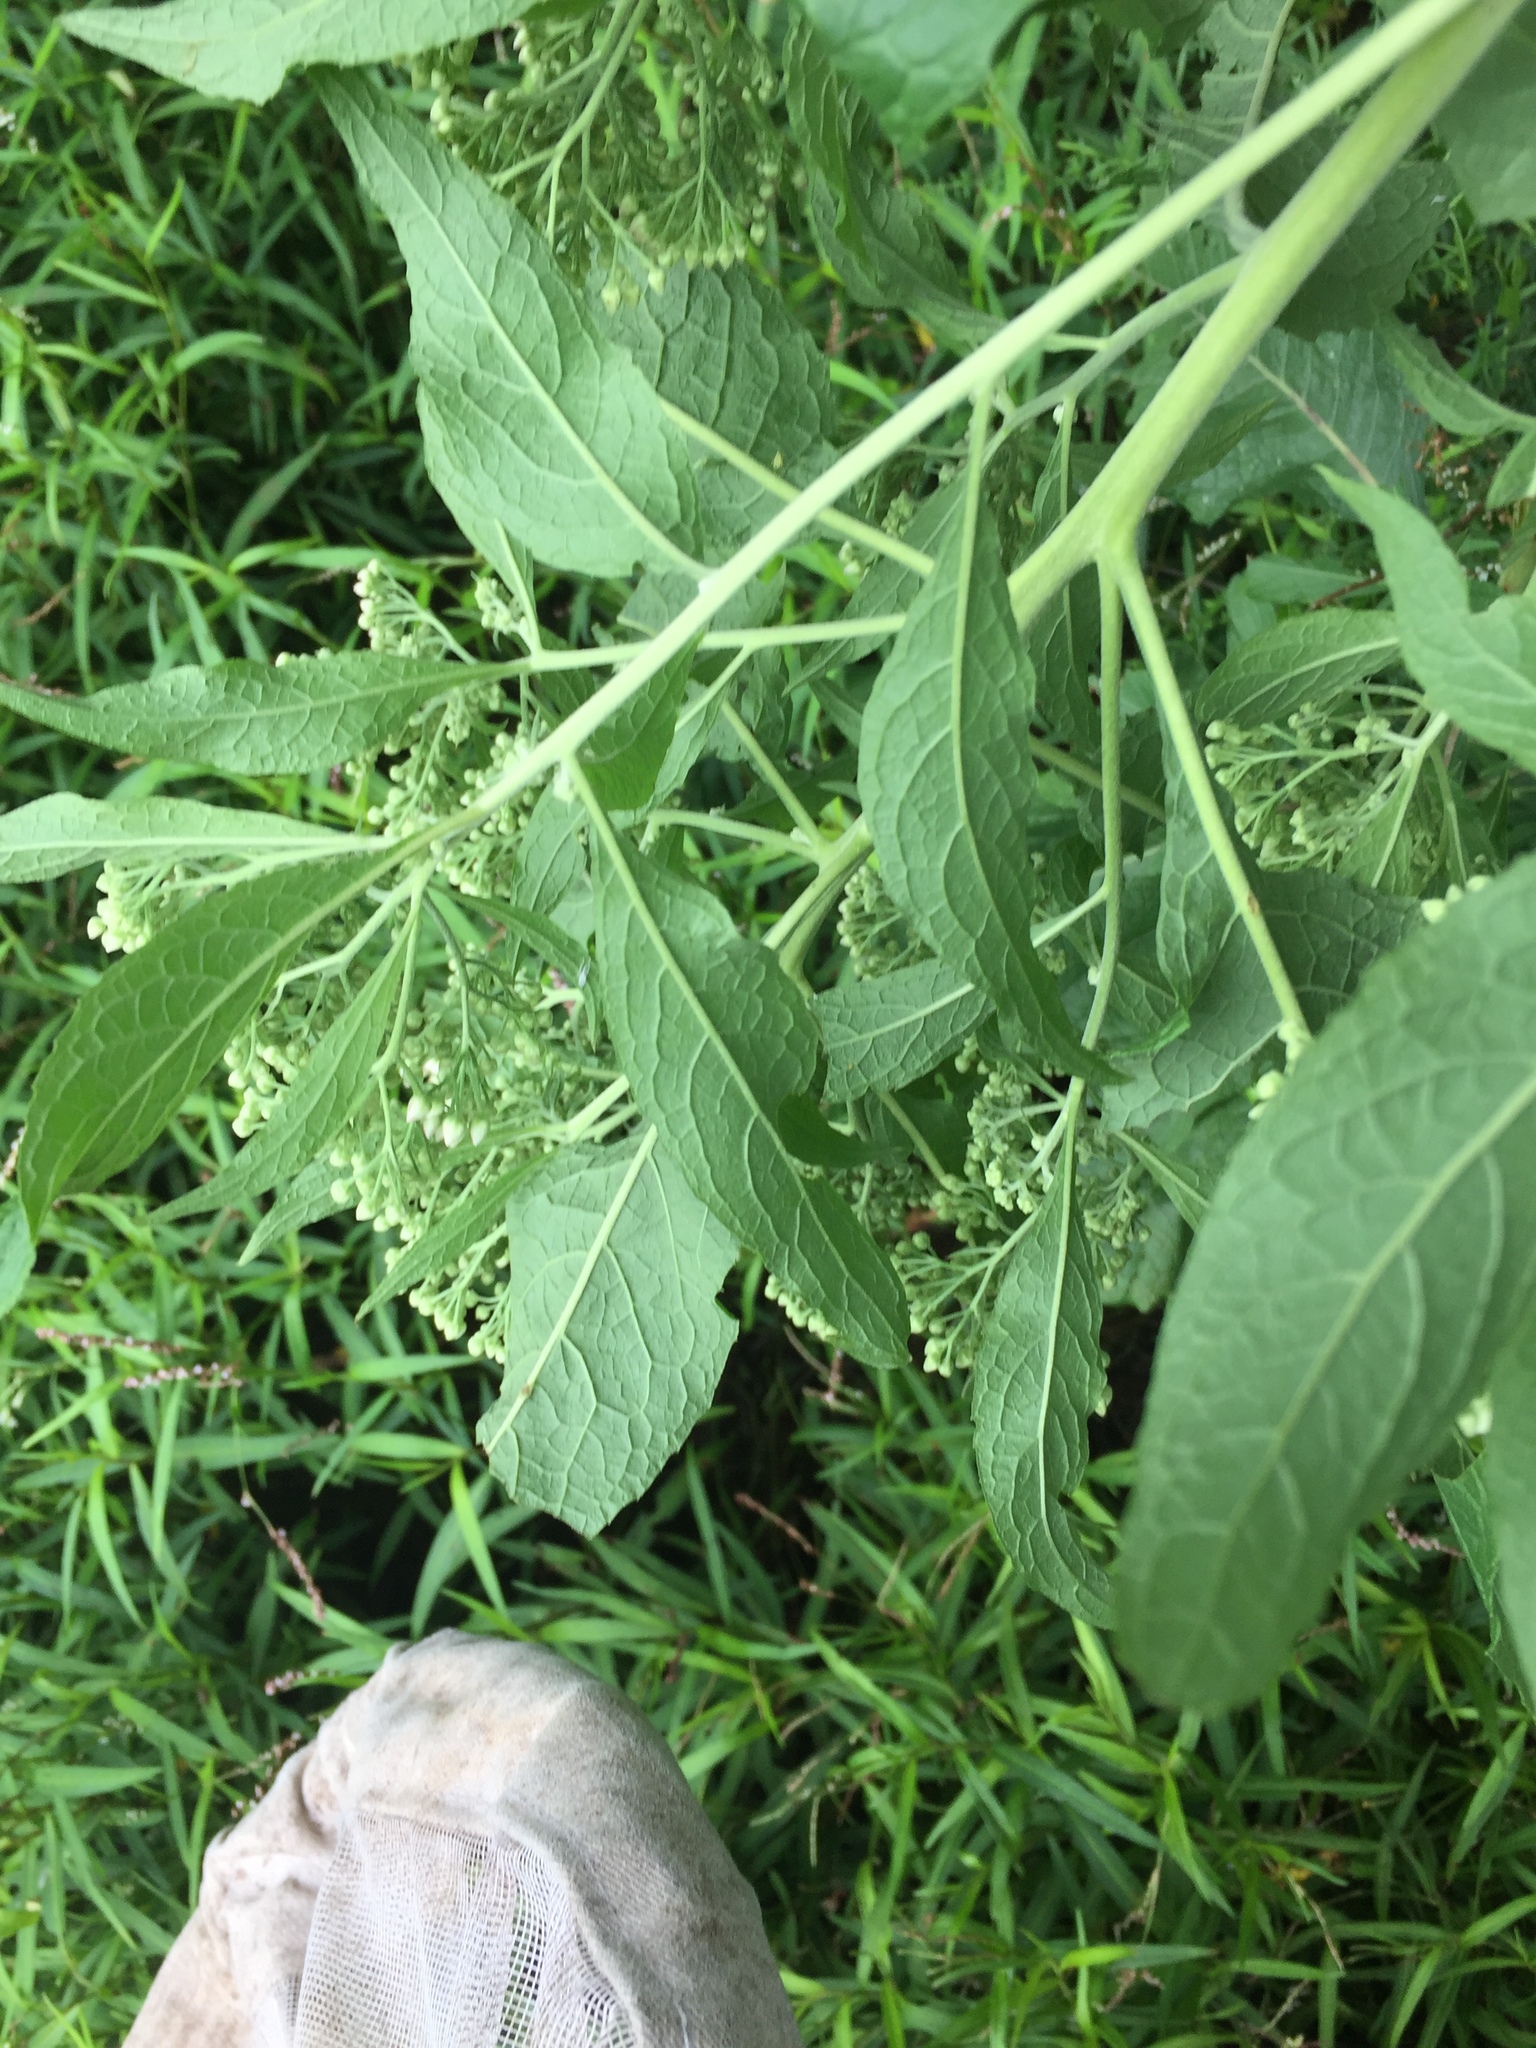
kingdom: Plantae
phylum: Tracheophyta
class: Magnoliopsida
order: Asterales
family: Asteraceae
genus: Pluchea
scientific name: Pluchea camphorata
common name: Camphor pluchea
